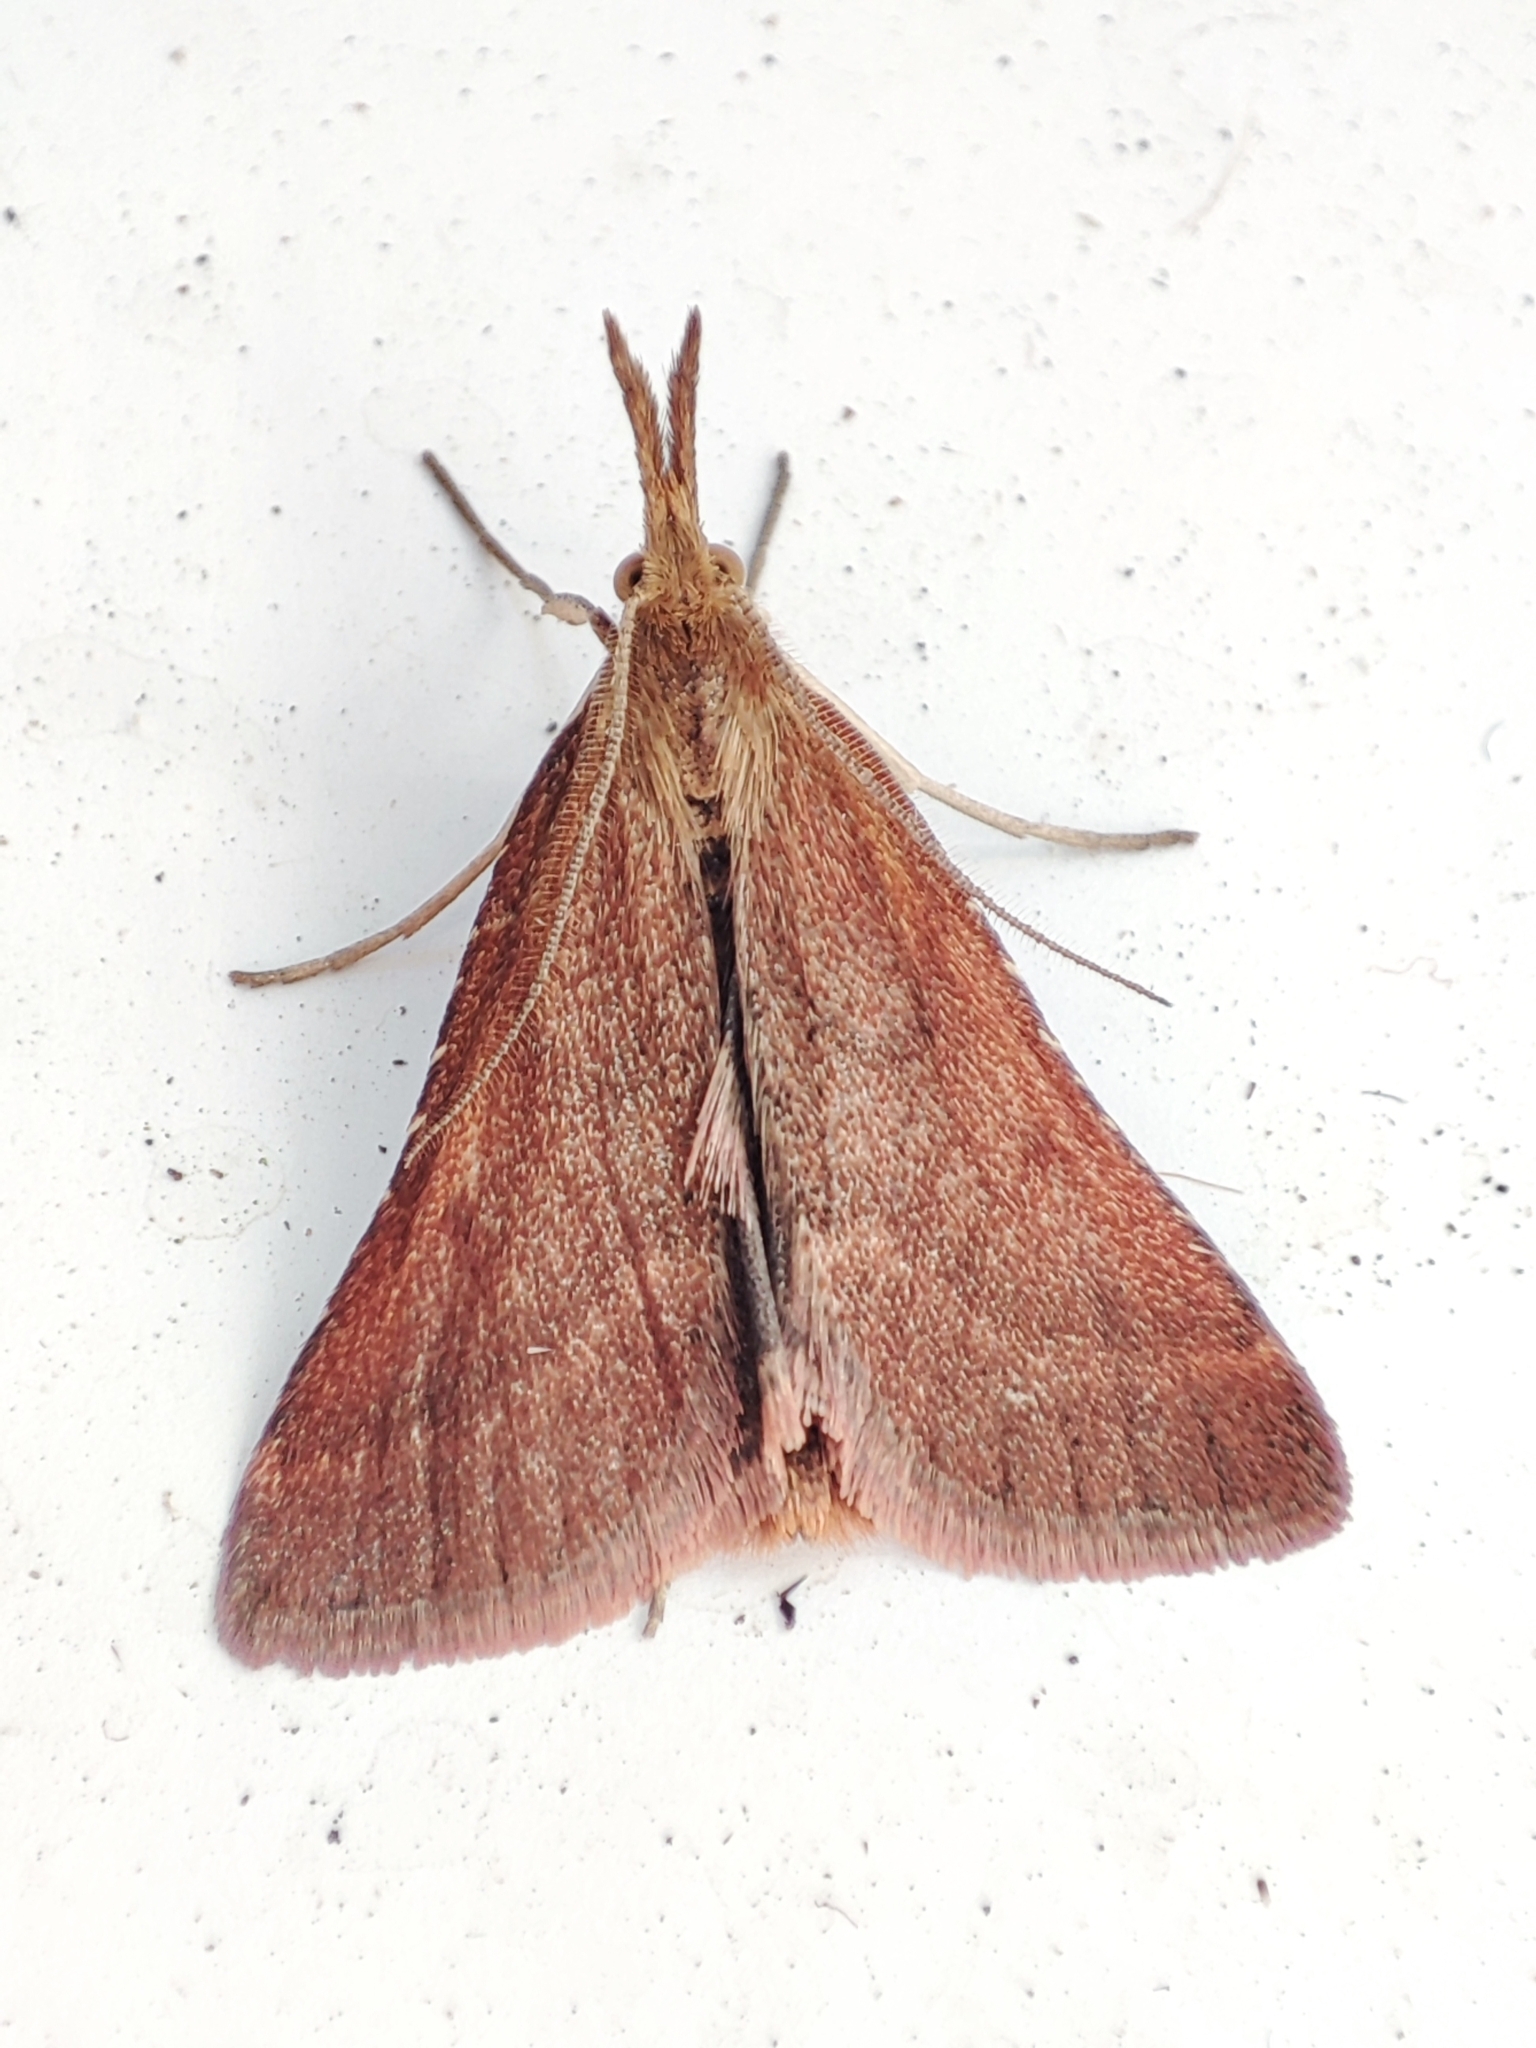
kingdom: Animalia
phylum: Arthropoda
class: Insecta
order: Lepidoptera
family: Pyralidae
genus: Synaphe
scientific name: Synaphe punctalis
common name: Long-legged tabby
